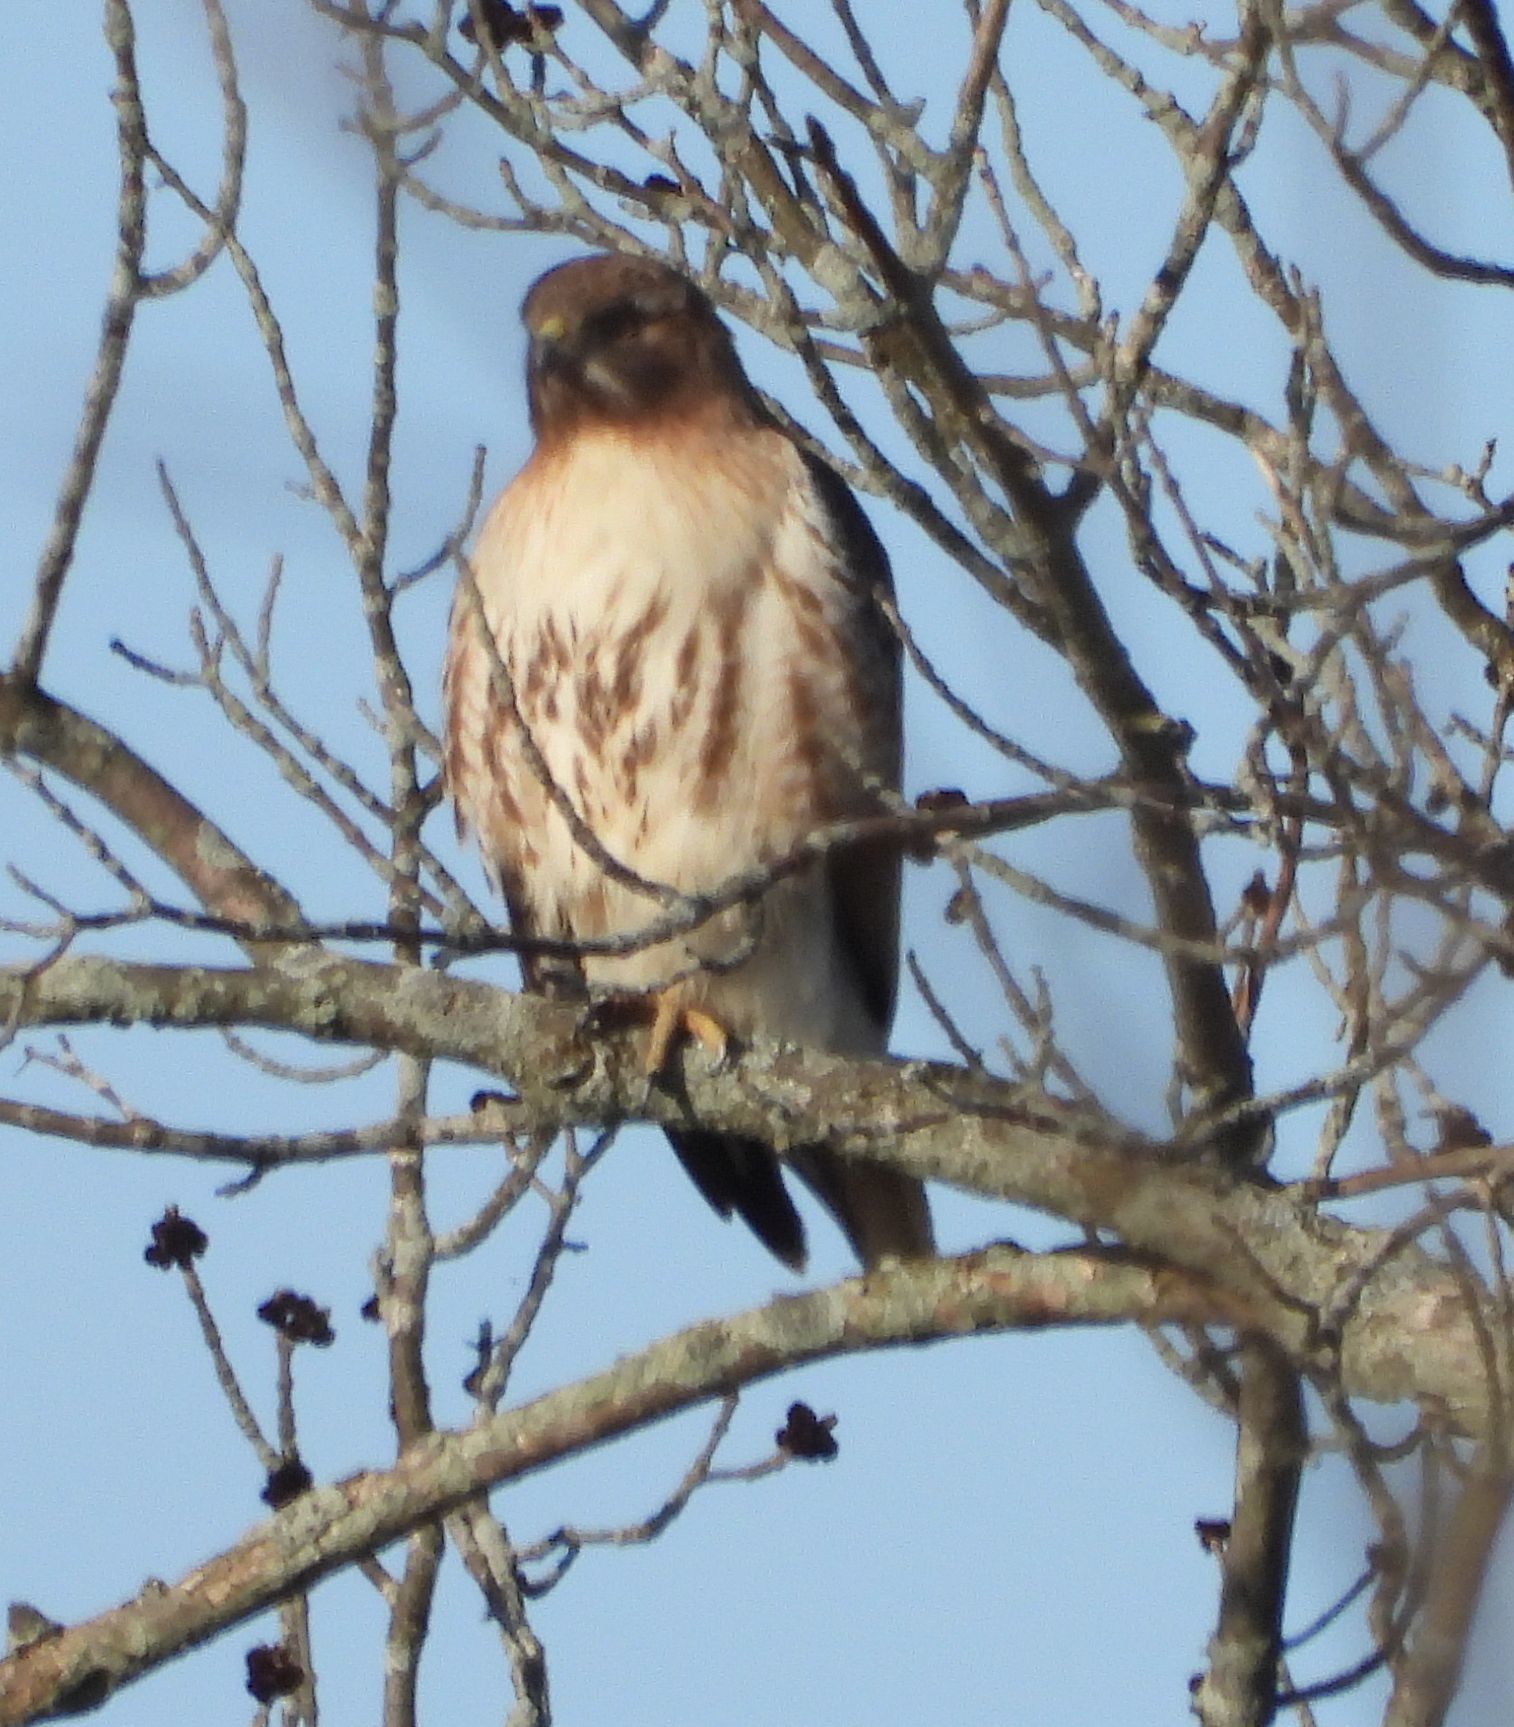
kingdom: Animalia
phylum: Chordata
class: Aves
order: Accipitriformes
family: Accipitridae
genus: Buteo
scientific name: Buteo jamaicensis
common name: Red-tailed hawk
